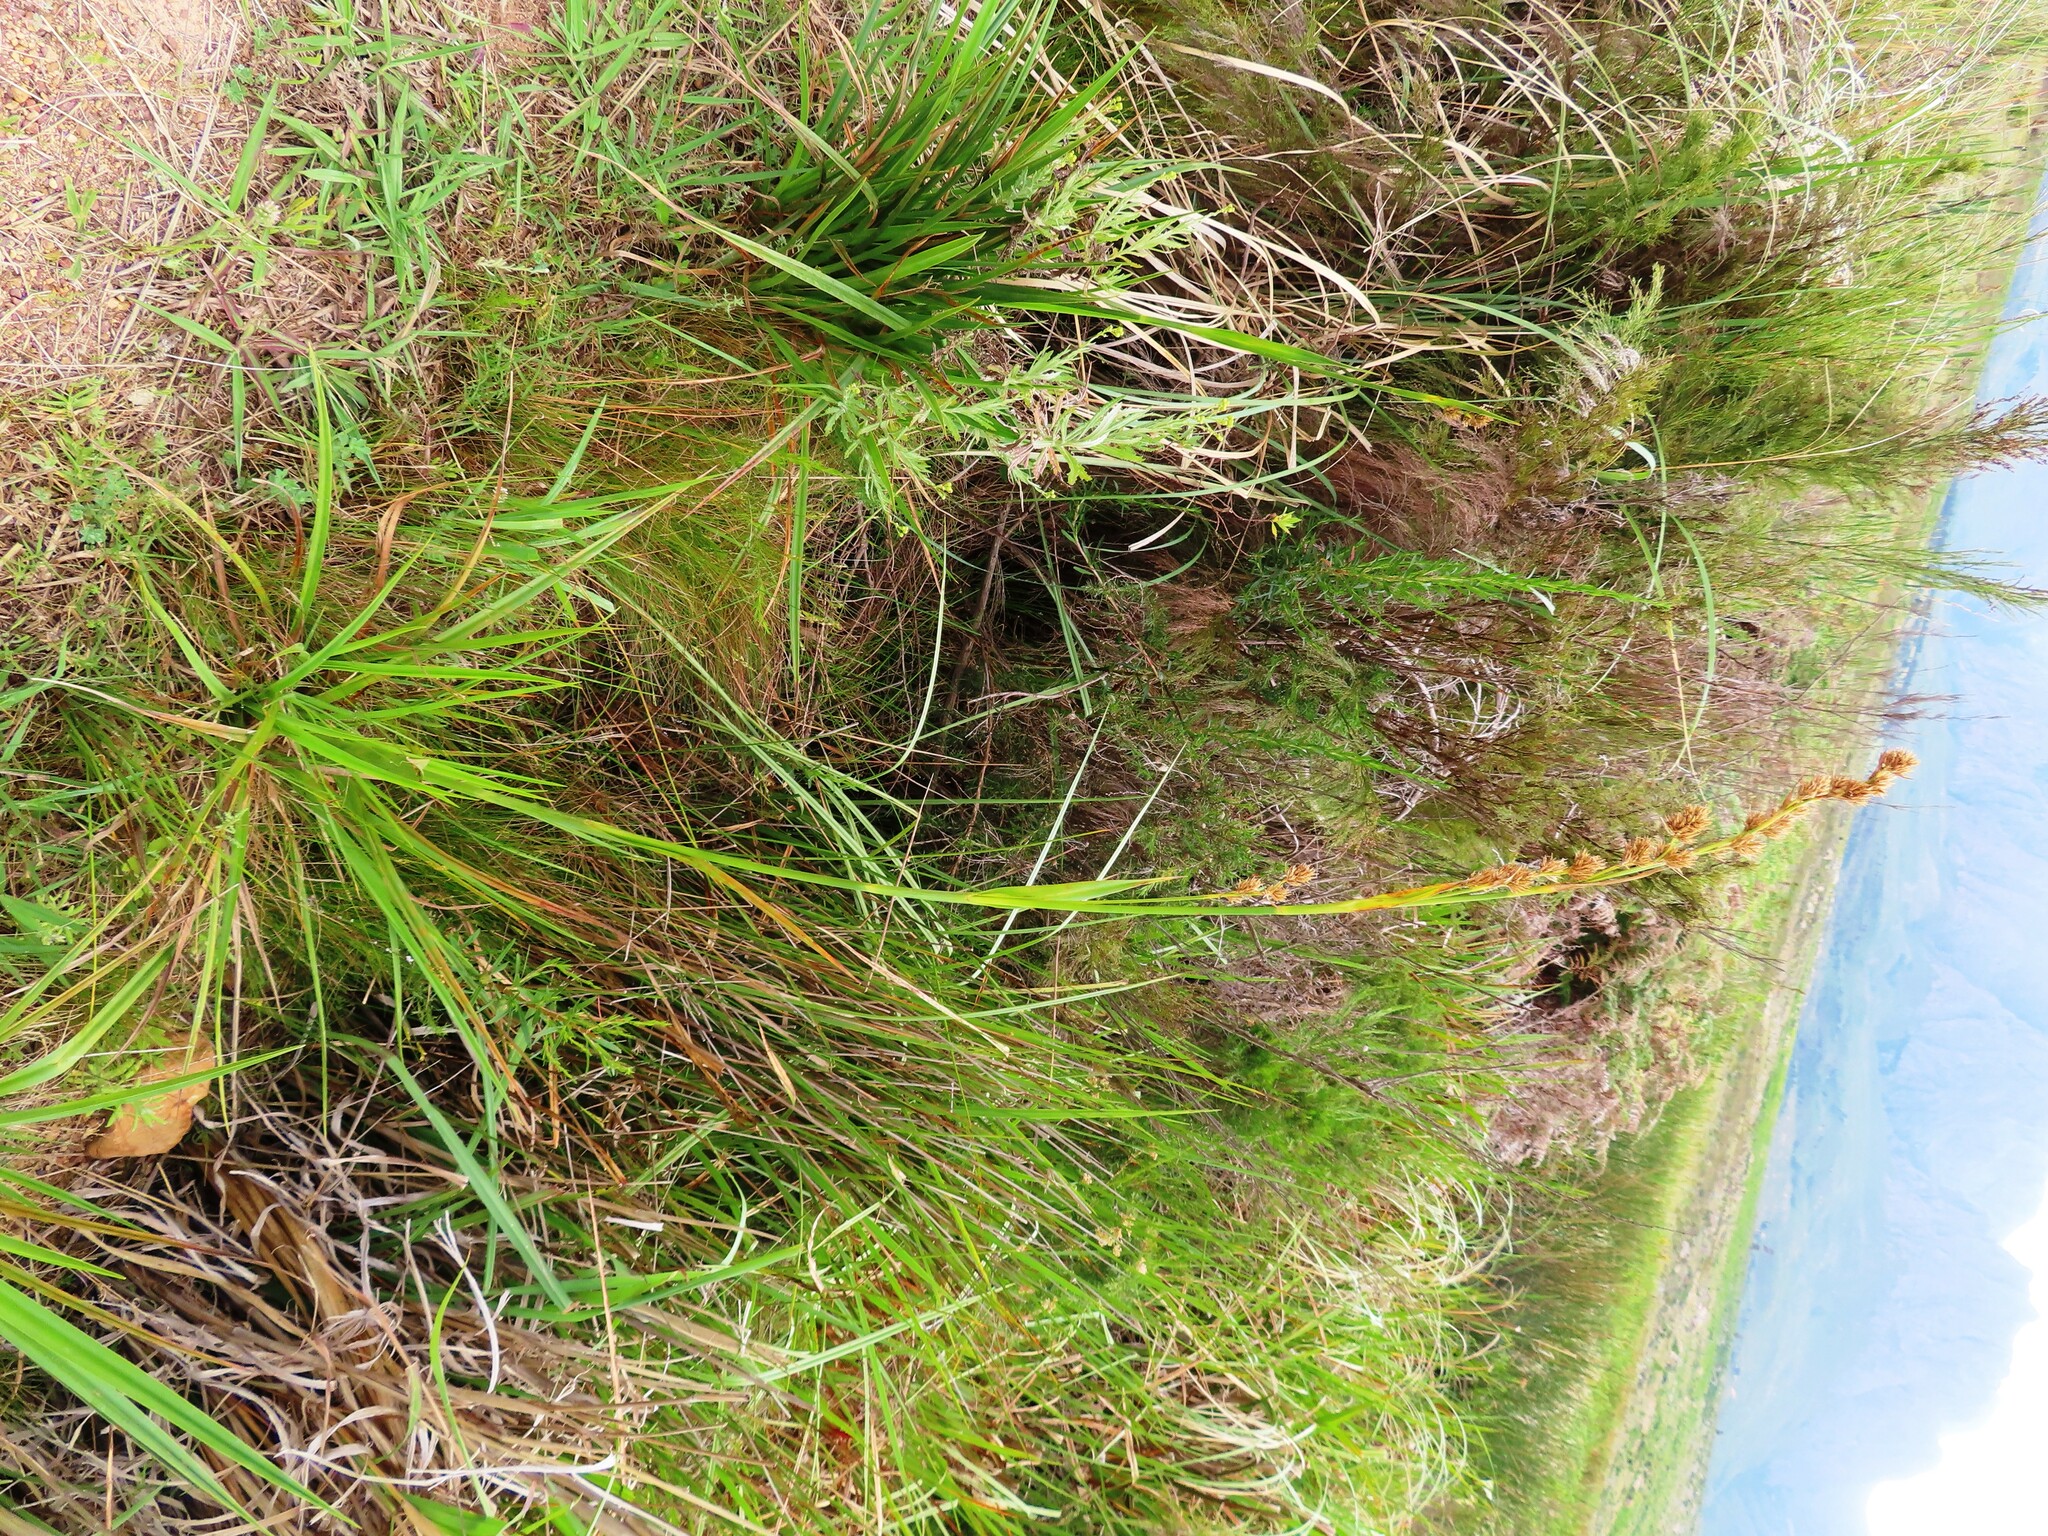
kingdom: Plantae
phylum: Tracheophyta
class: Liliopsida
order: Poales
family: Cyperaceae
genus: Carpha
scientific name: Carpha glomerata
